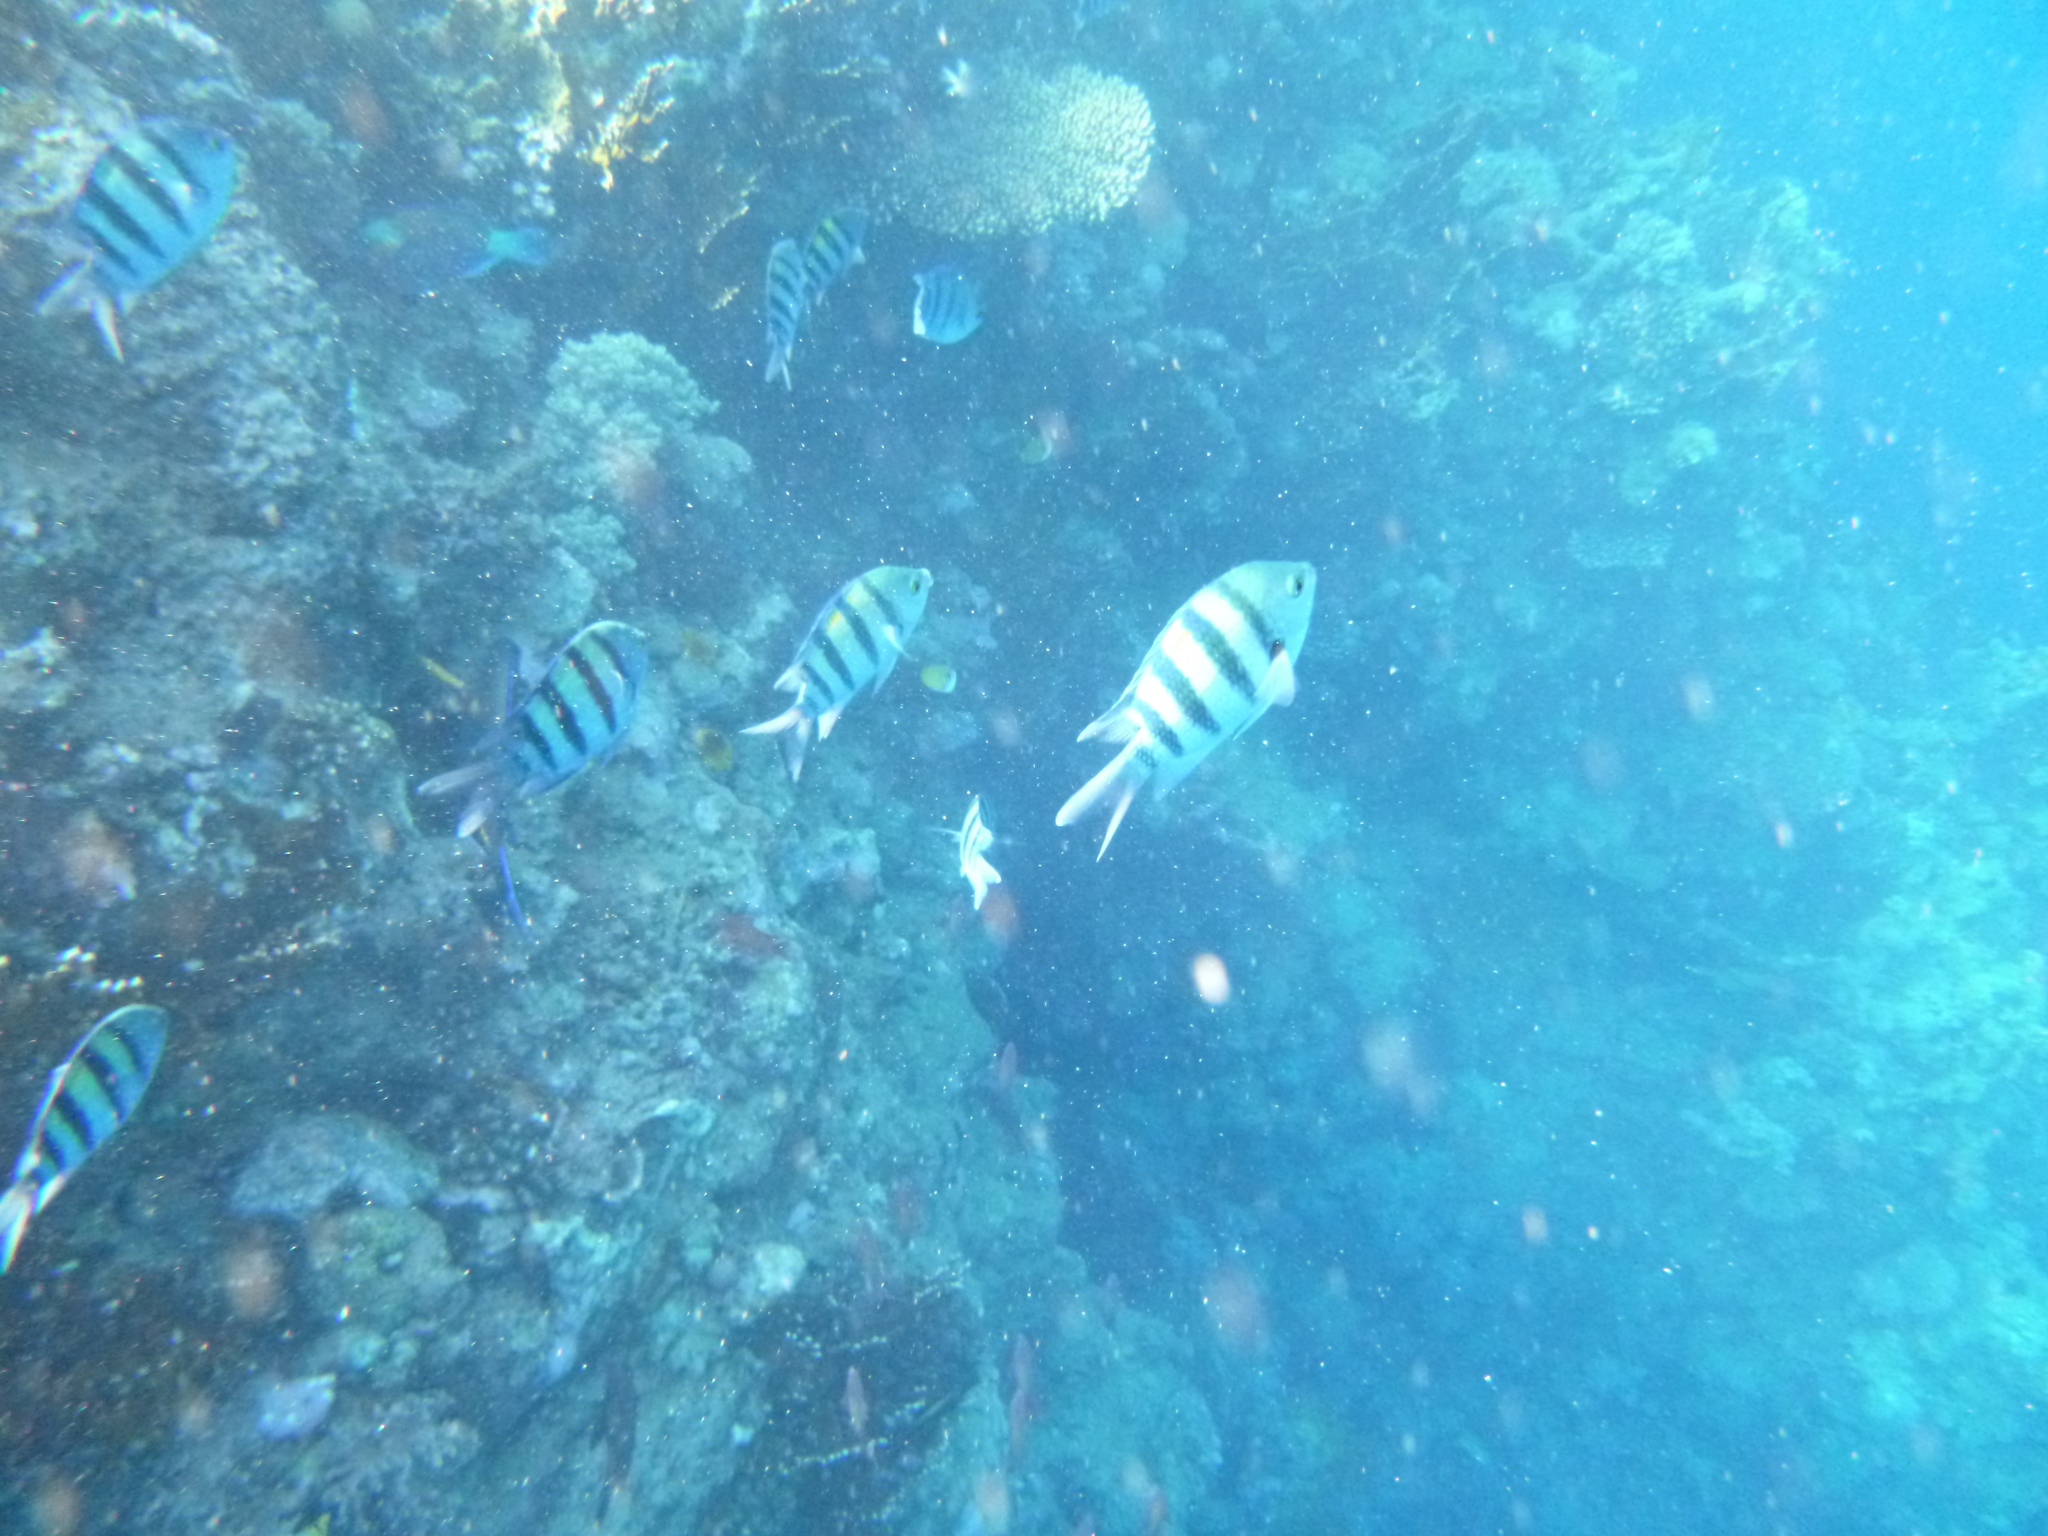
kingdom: Animalia
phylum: Chordata
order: Perciformes
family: Pomacentridae
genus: Abudefduf
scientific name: Abudefduf vaigiensis
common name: Indo-pacific sergeant
